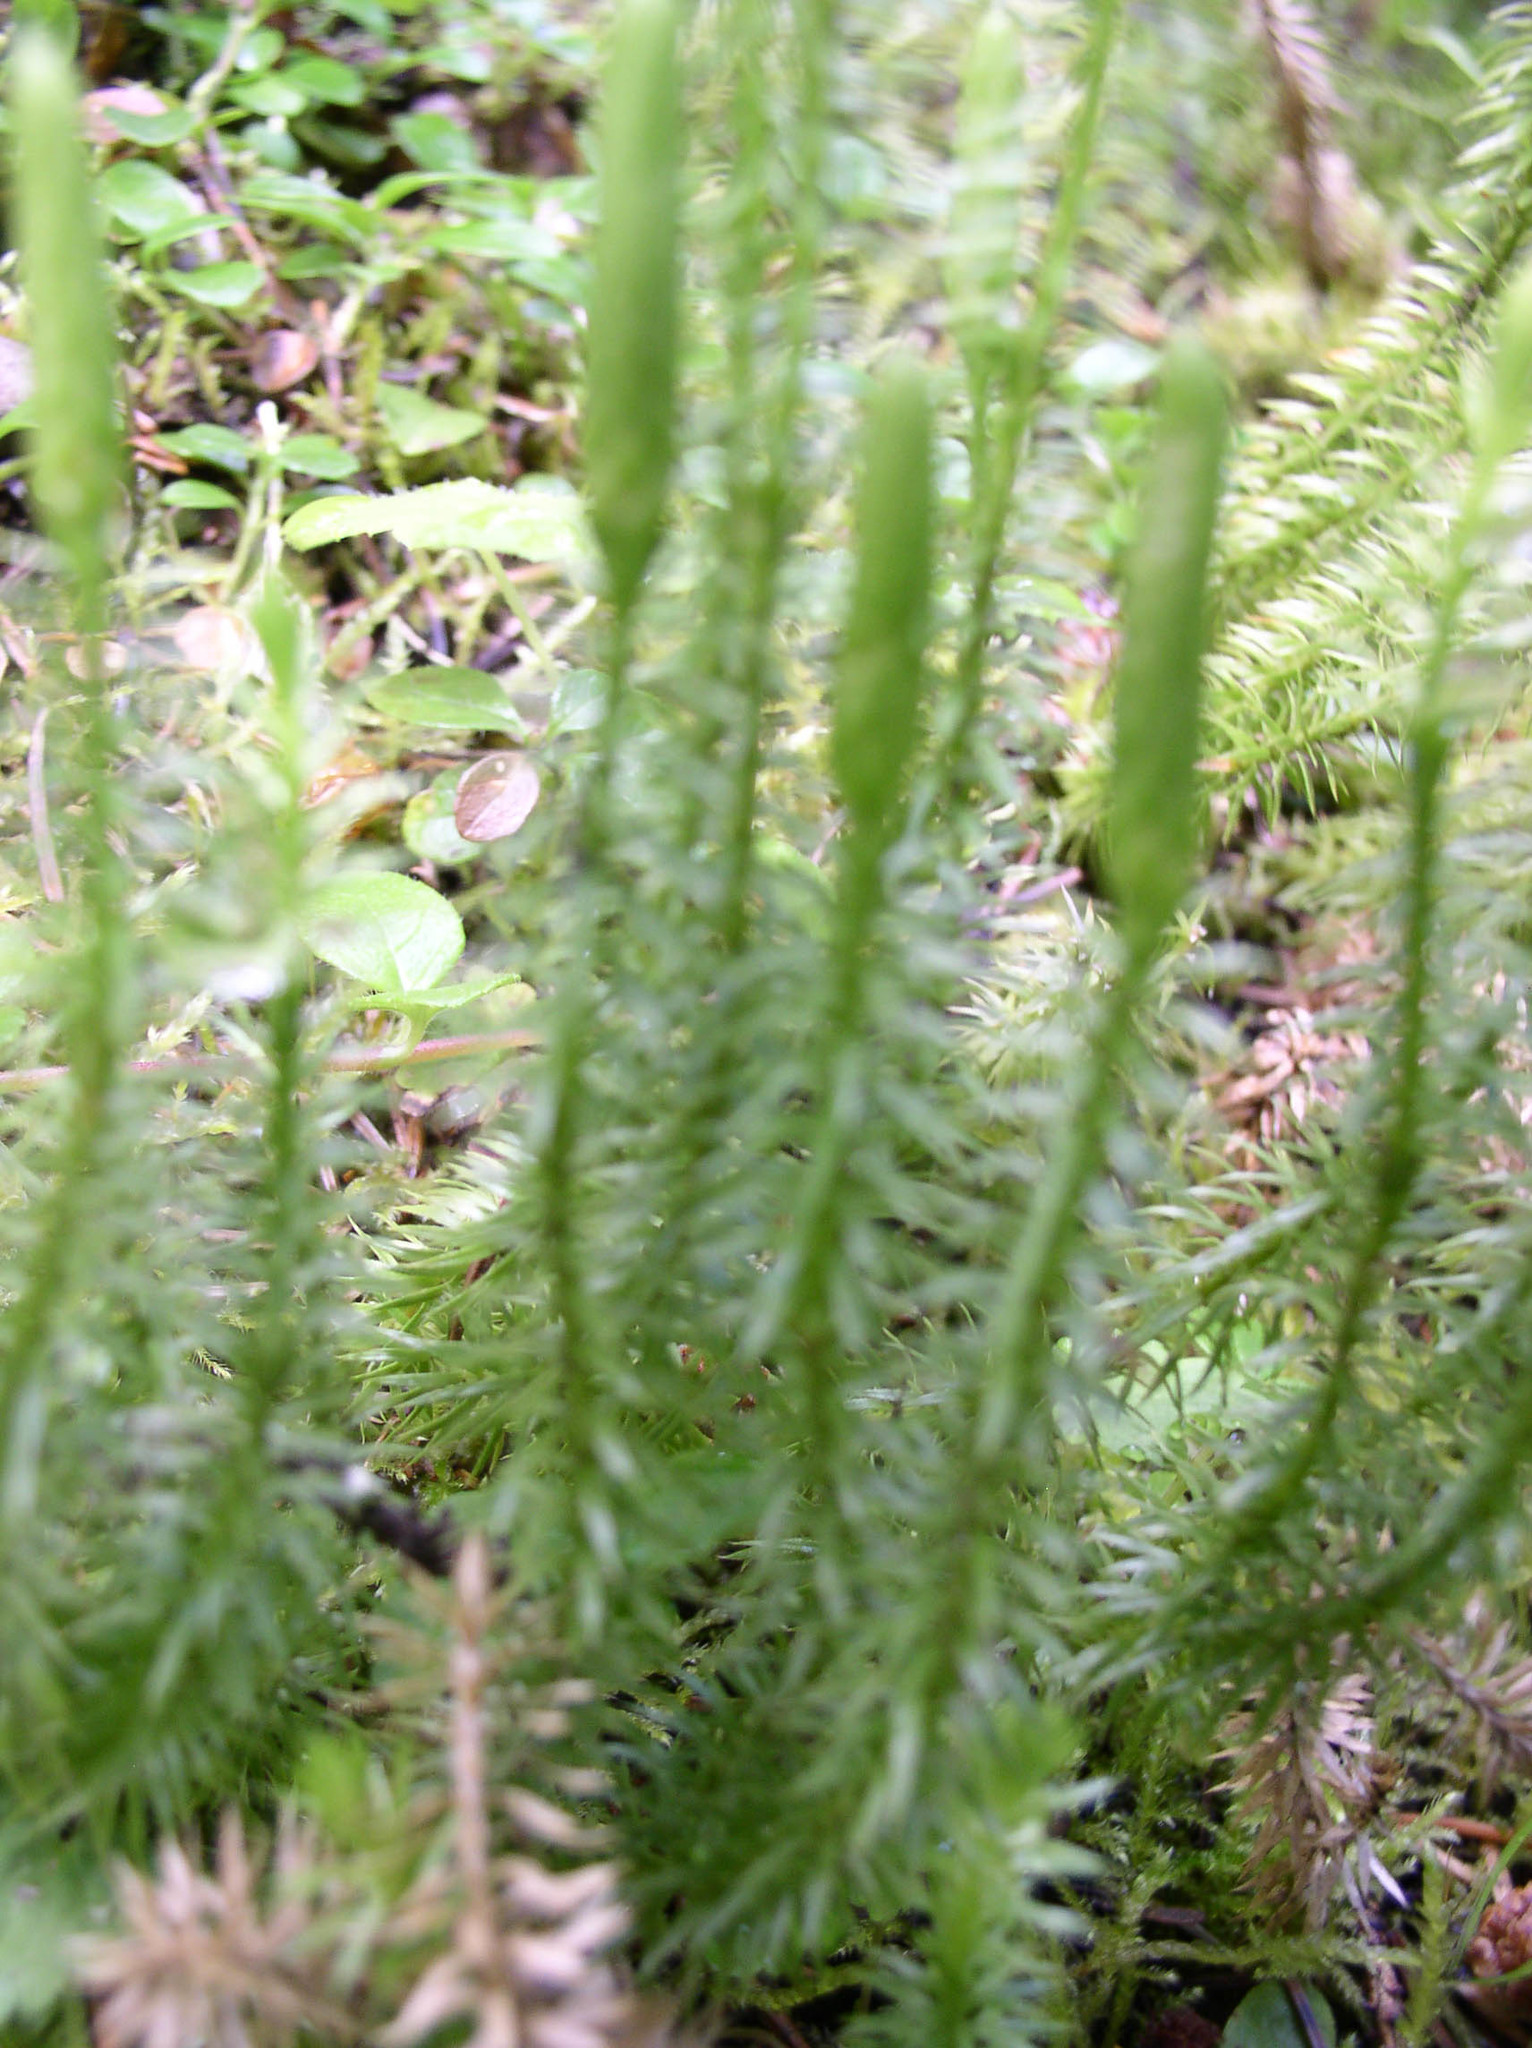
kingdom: Plantae
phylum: Tracheophyta
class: Lycopodiopsida
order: Lycopodiales
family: Lycopodiaceae
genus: Spinulum
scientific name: Spinulum annotinum
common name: Interrupted club-moss
